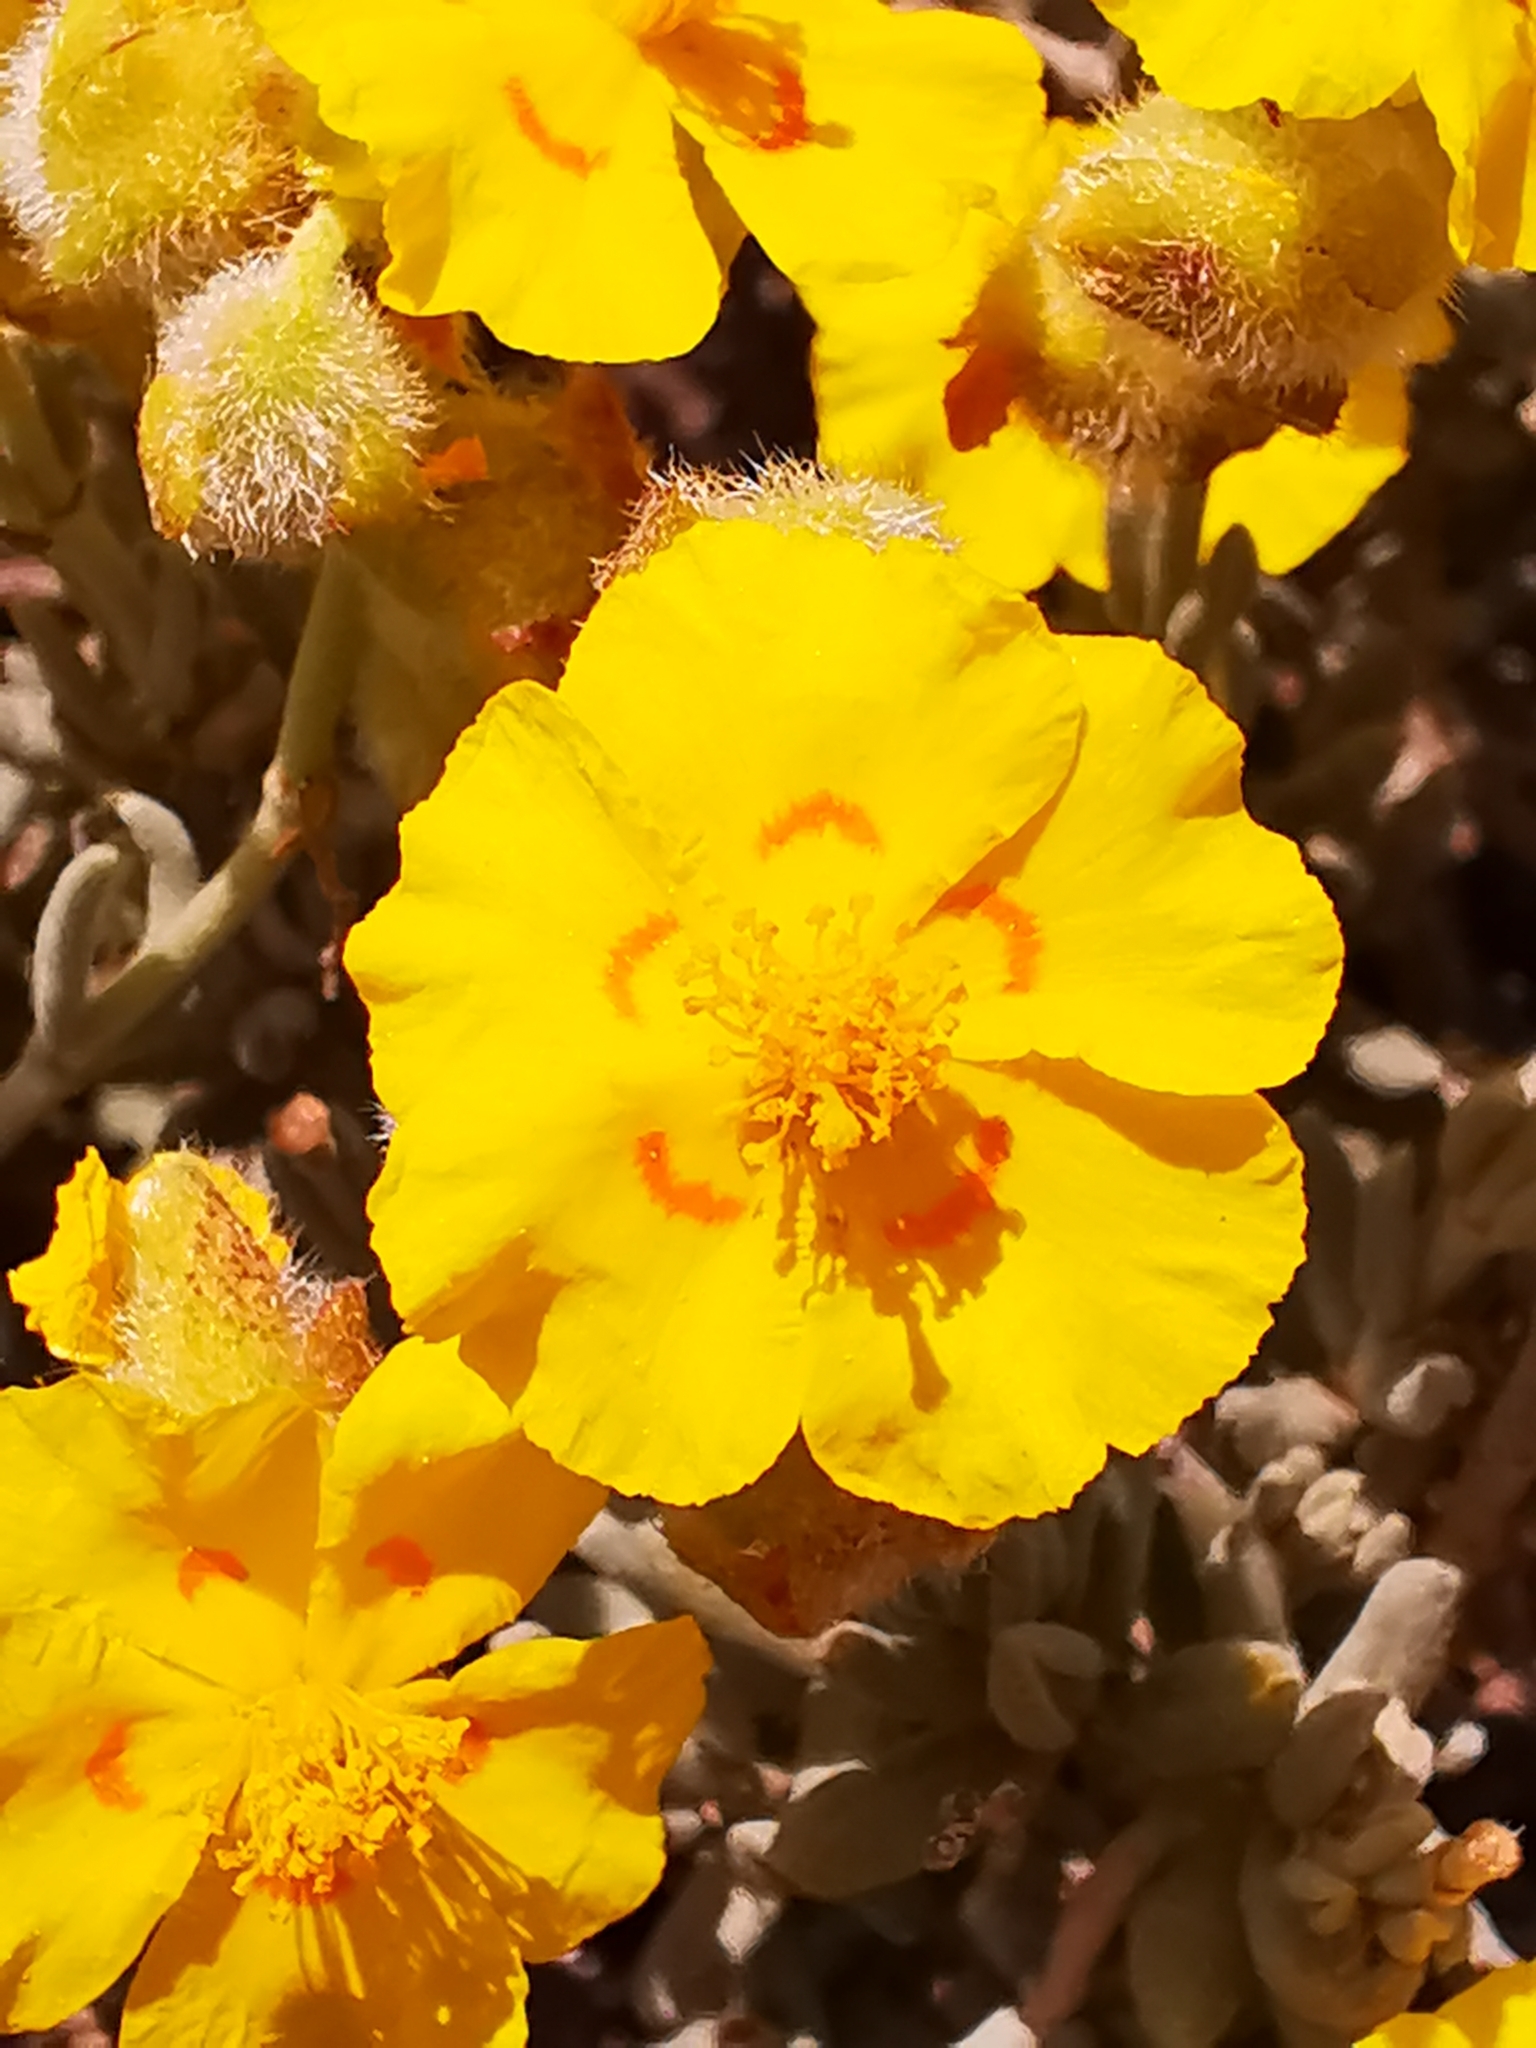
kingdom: Plantae
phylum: Tracheophyta
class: Magnoliopsida
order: Malvales
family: Cistaceae
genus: Helianthemum
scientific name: Helianthemum caput-felis
